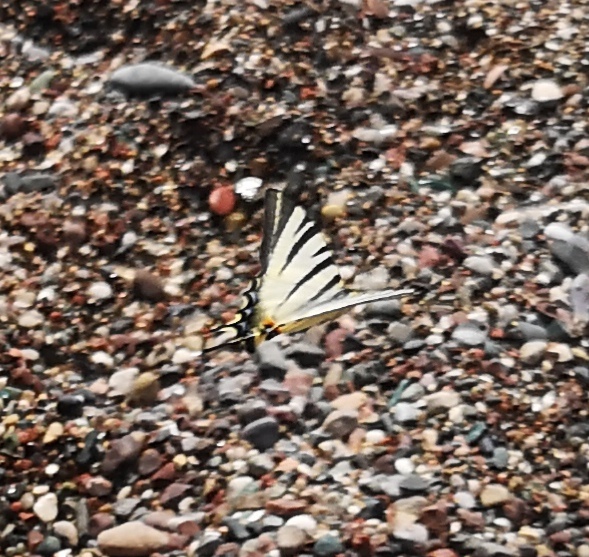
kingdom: Animalia
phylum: Arthropoda
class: Insecta
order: Lepidoptera
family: Papilionidae
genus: Iphiclides
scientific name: Iphiclides podalirius
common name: Scarce swallowtail
